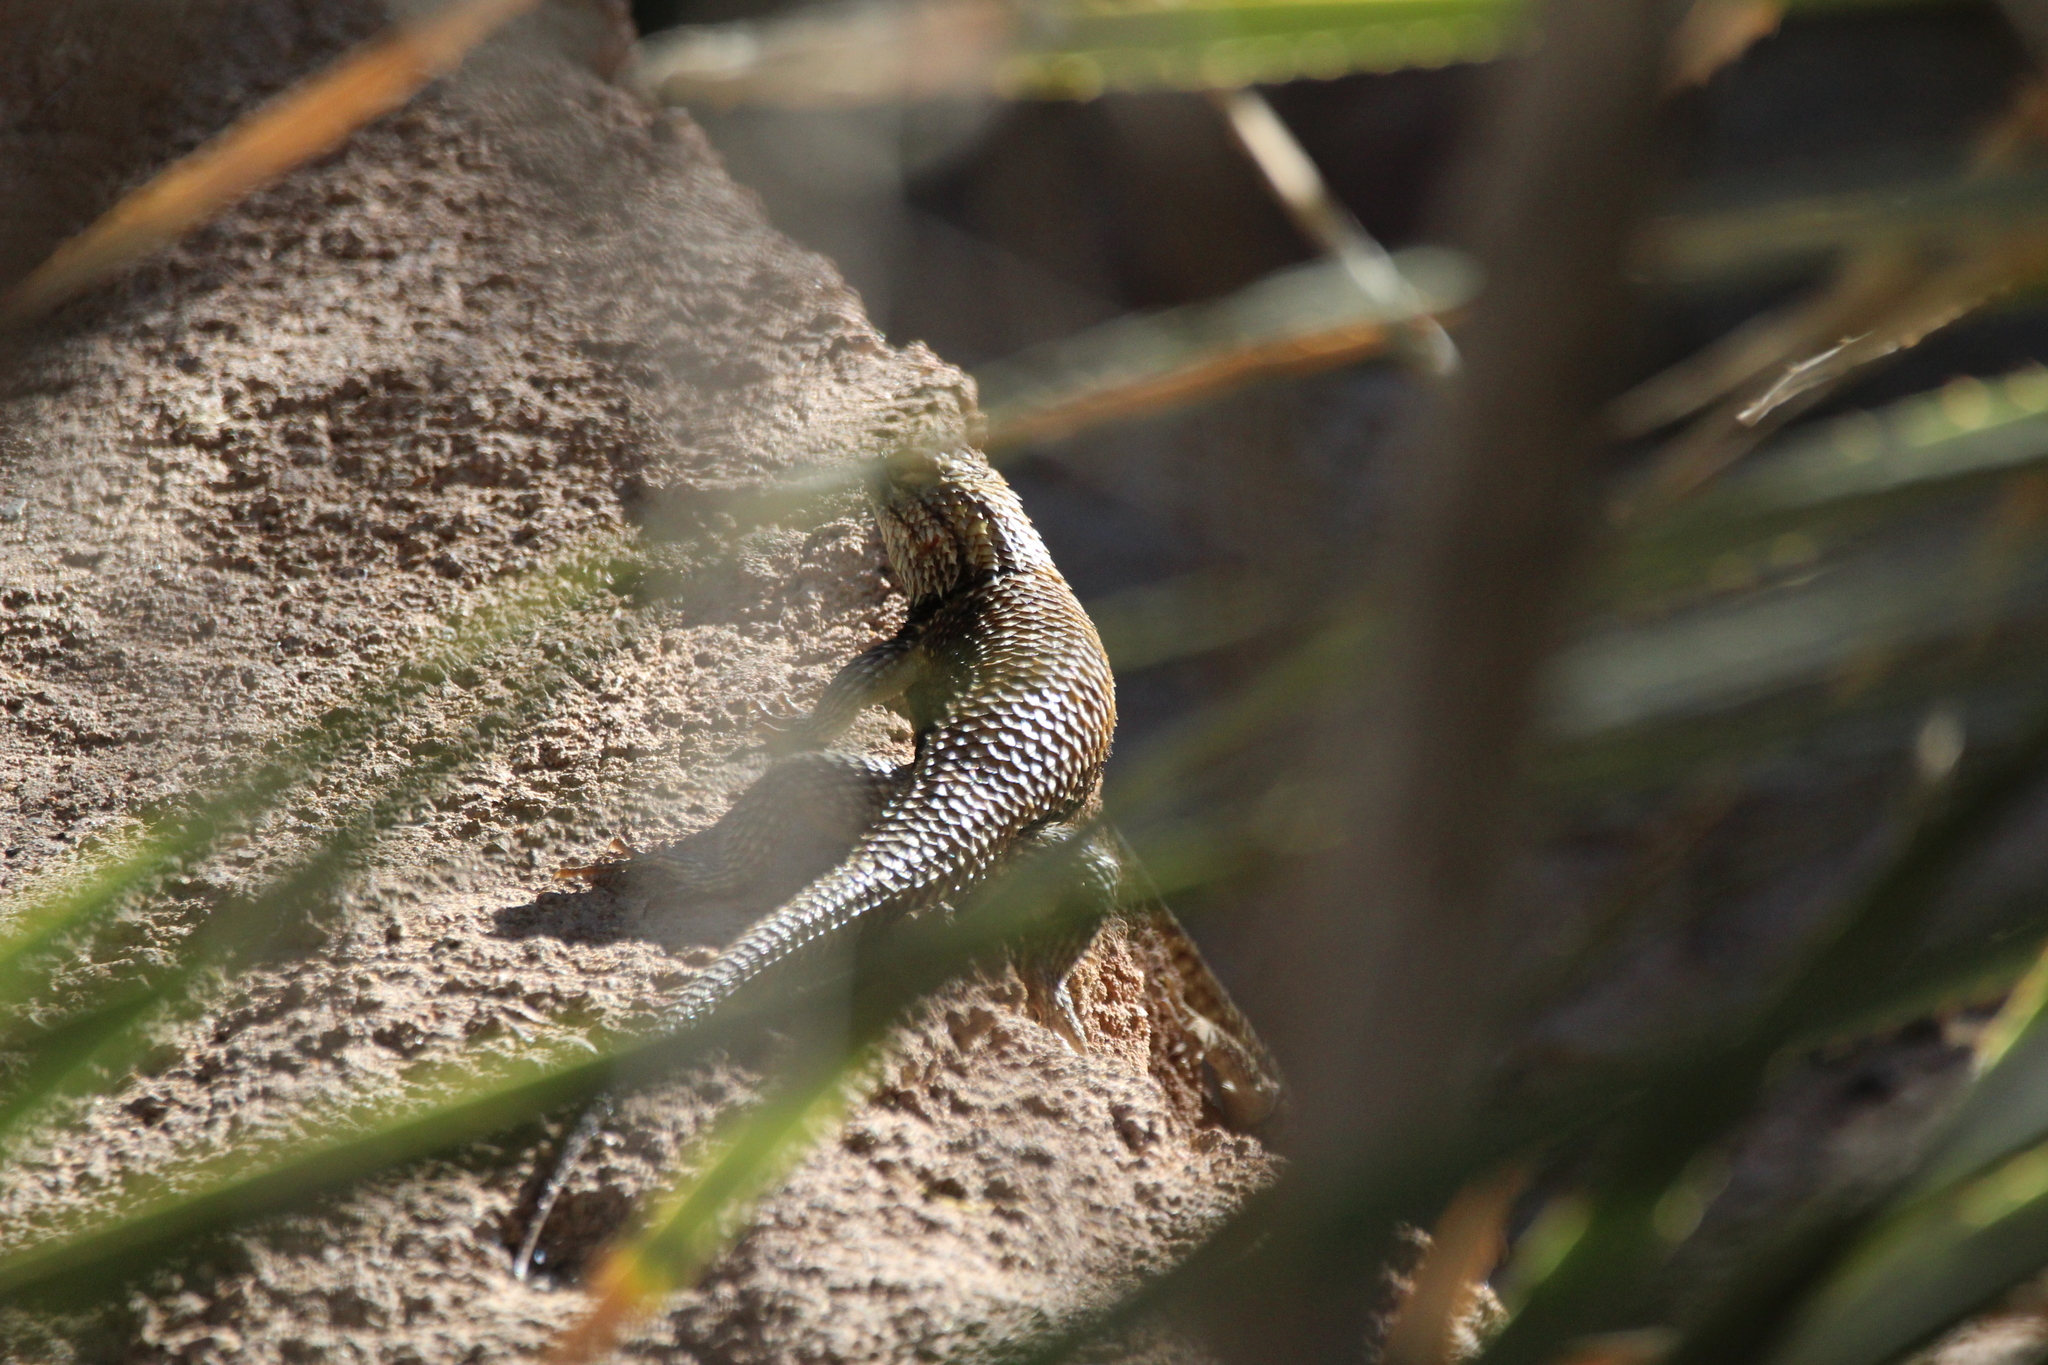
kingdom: Animalia
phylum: Chordata
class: Squamata
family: Phrynosomatidae
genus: Sceloporus
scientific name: Sceloporus magister
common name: Desert spiny lizard
